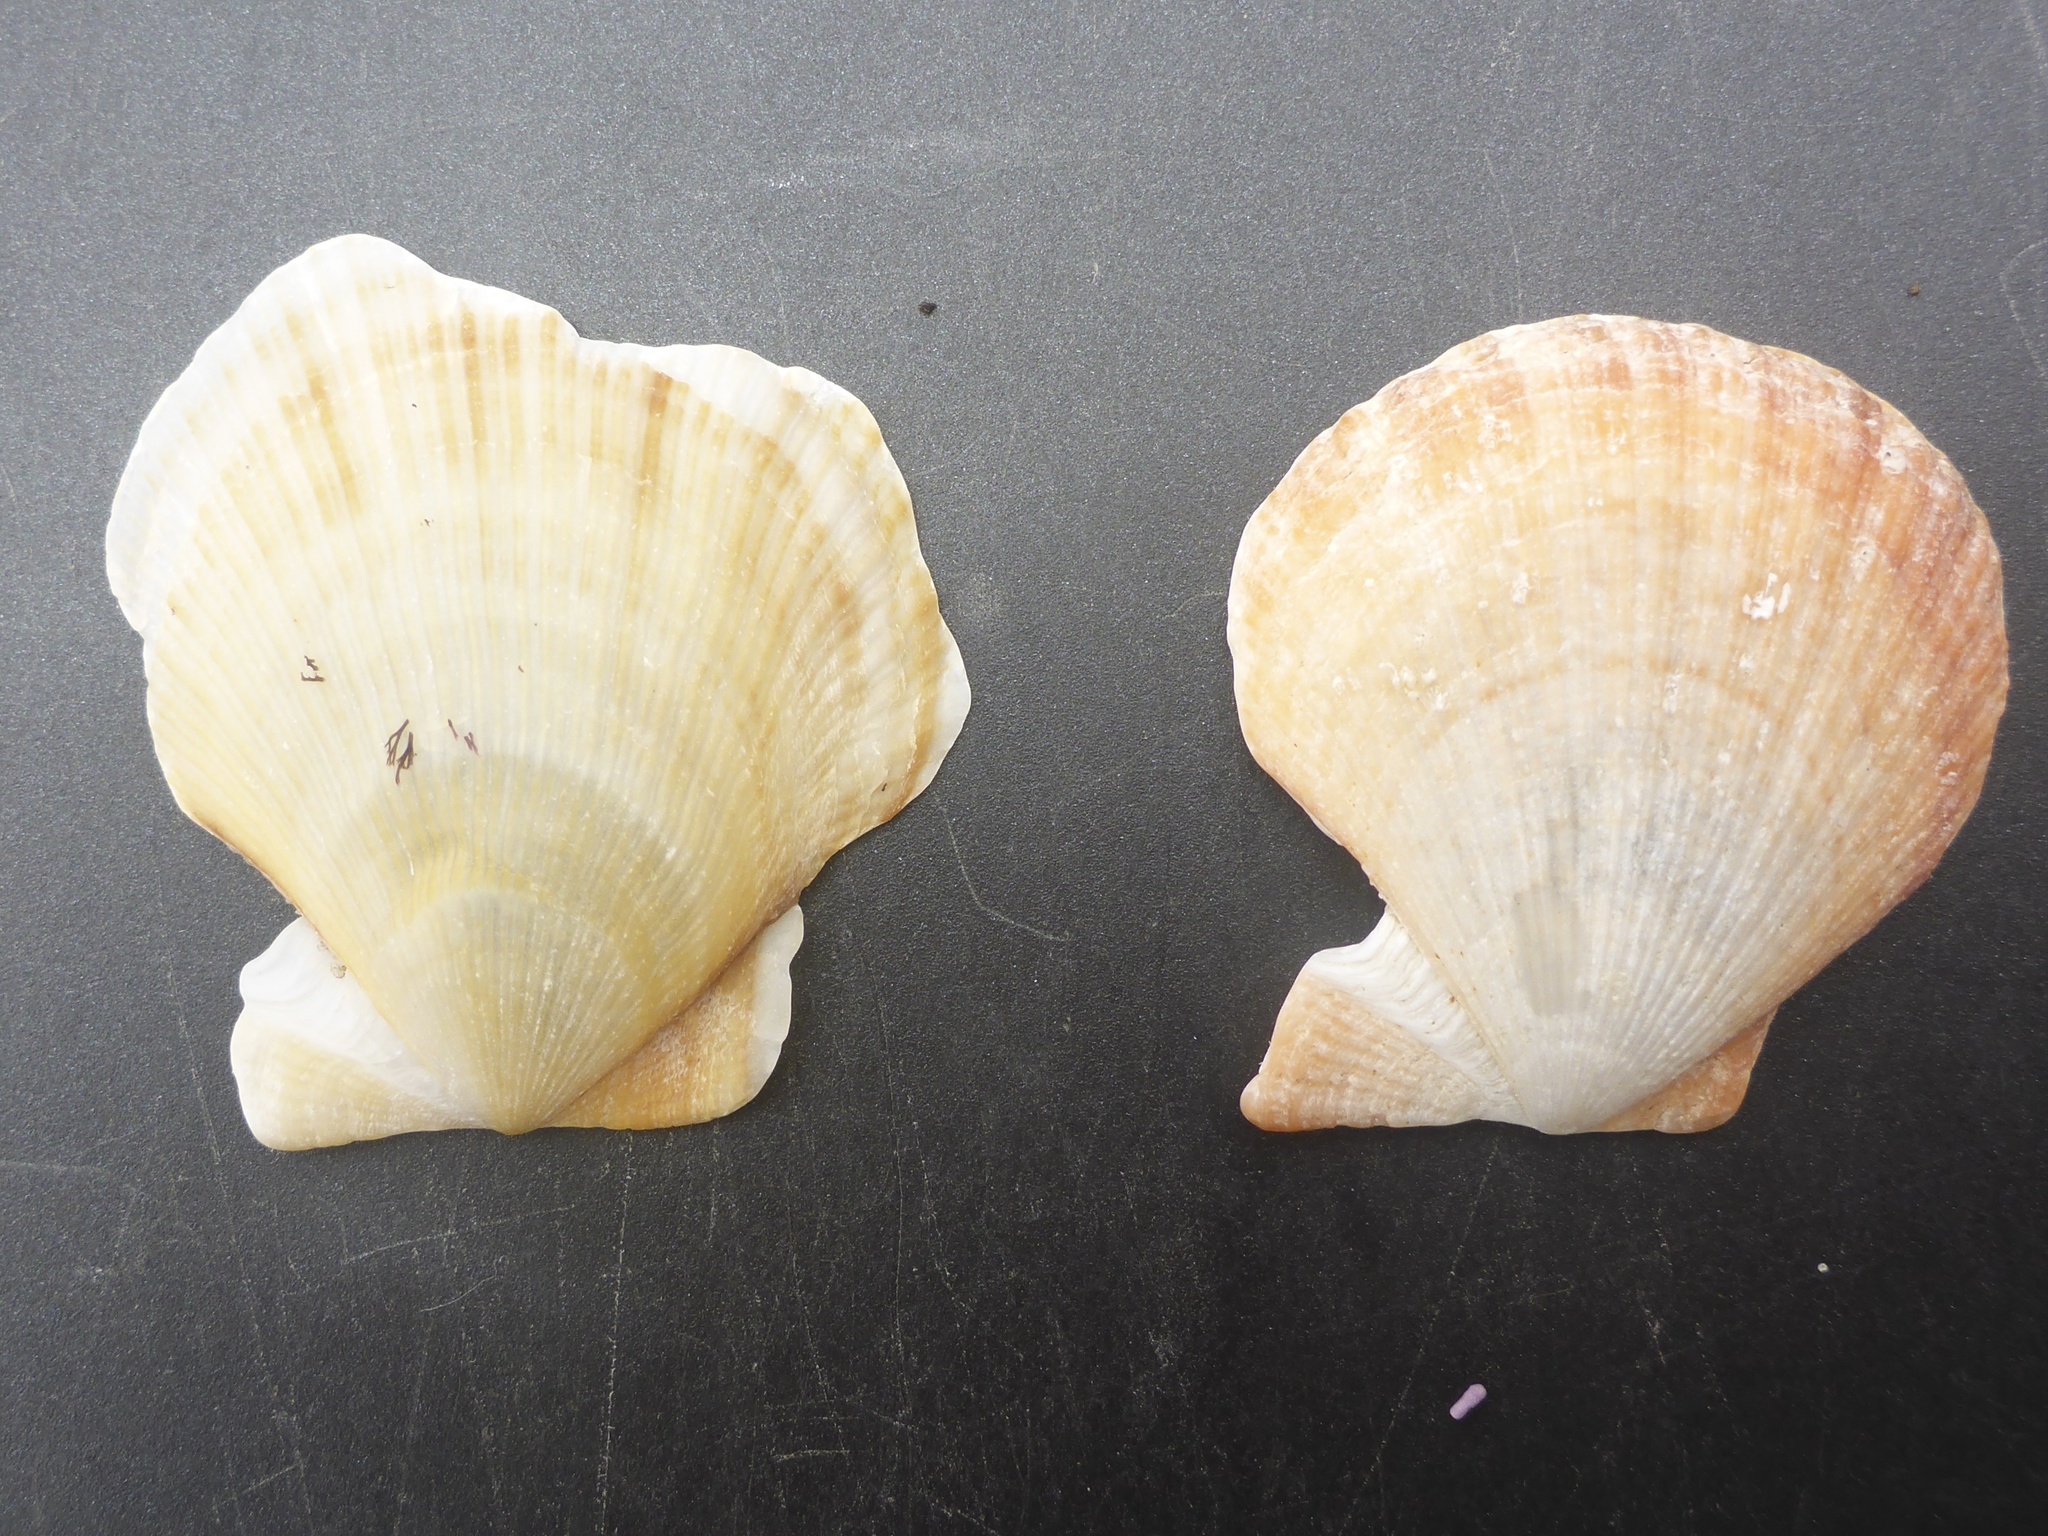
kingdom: Animalia
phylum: Mollusca
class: Bivalvia
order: Pectinida
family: Pectinidae
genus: Crassadoma
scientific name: Crassadoma gigantea
